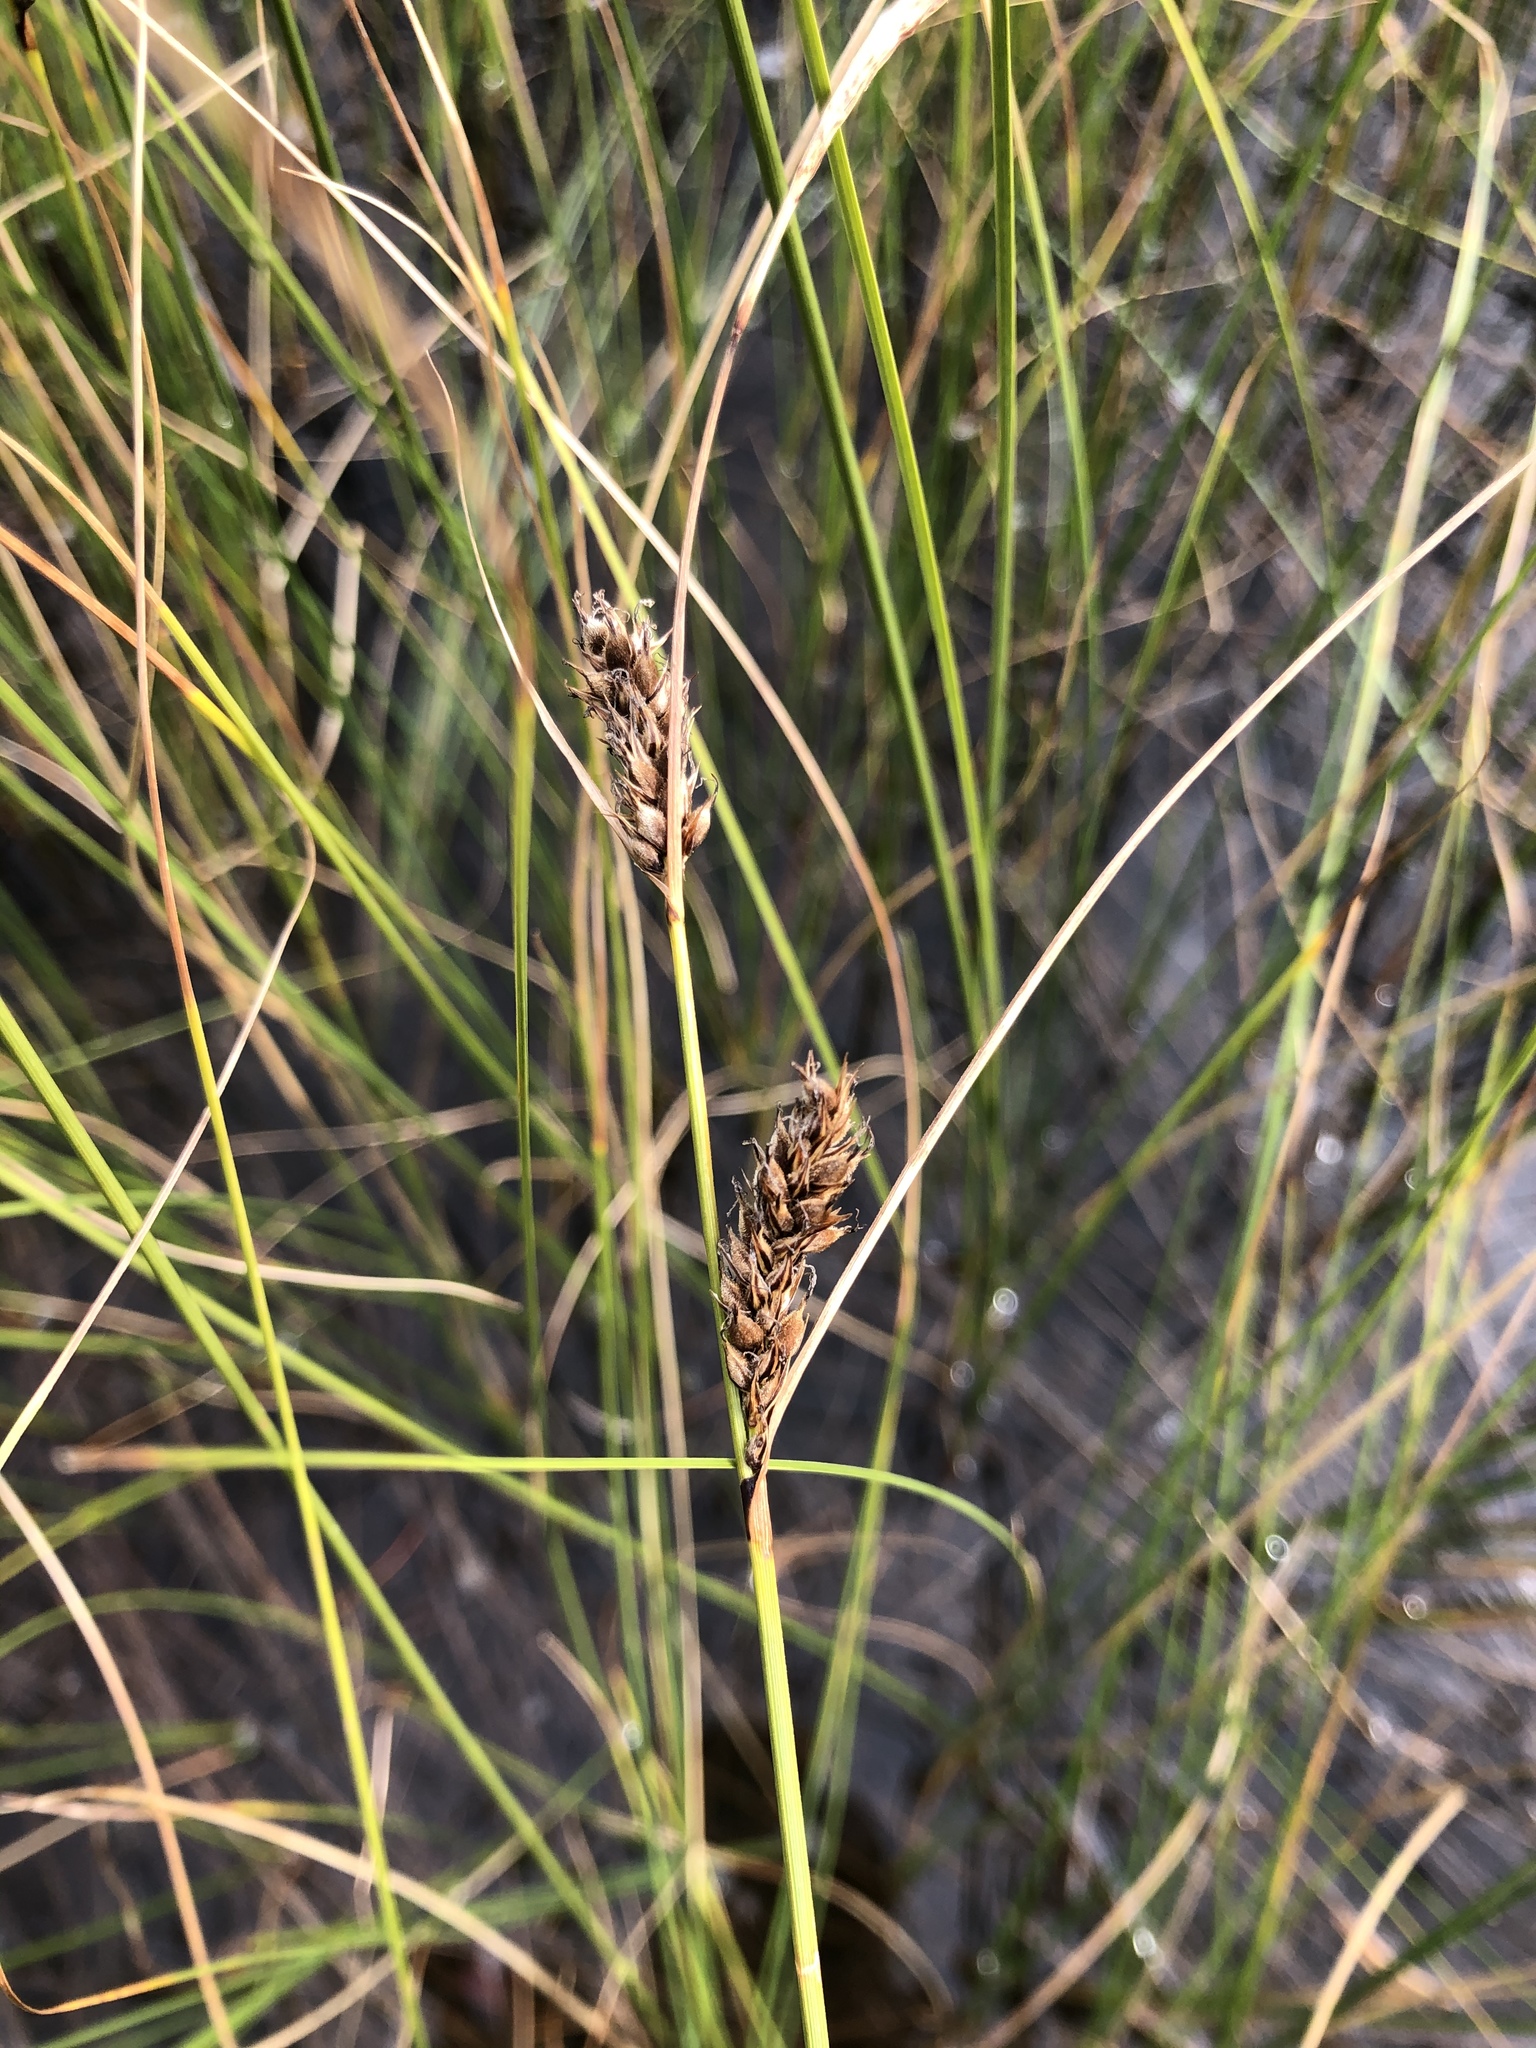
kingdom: Plantae
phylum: Tracheophyta
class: Liliopsida
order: Poales
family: Cyperaceae
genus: Carex
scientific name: Carex lasiocarpa
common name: Slender sedge
